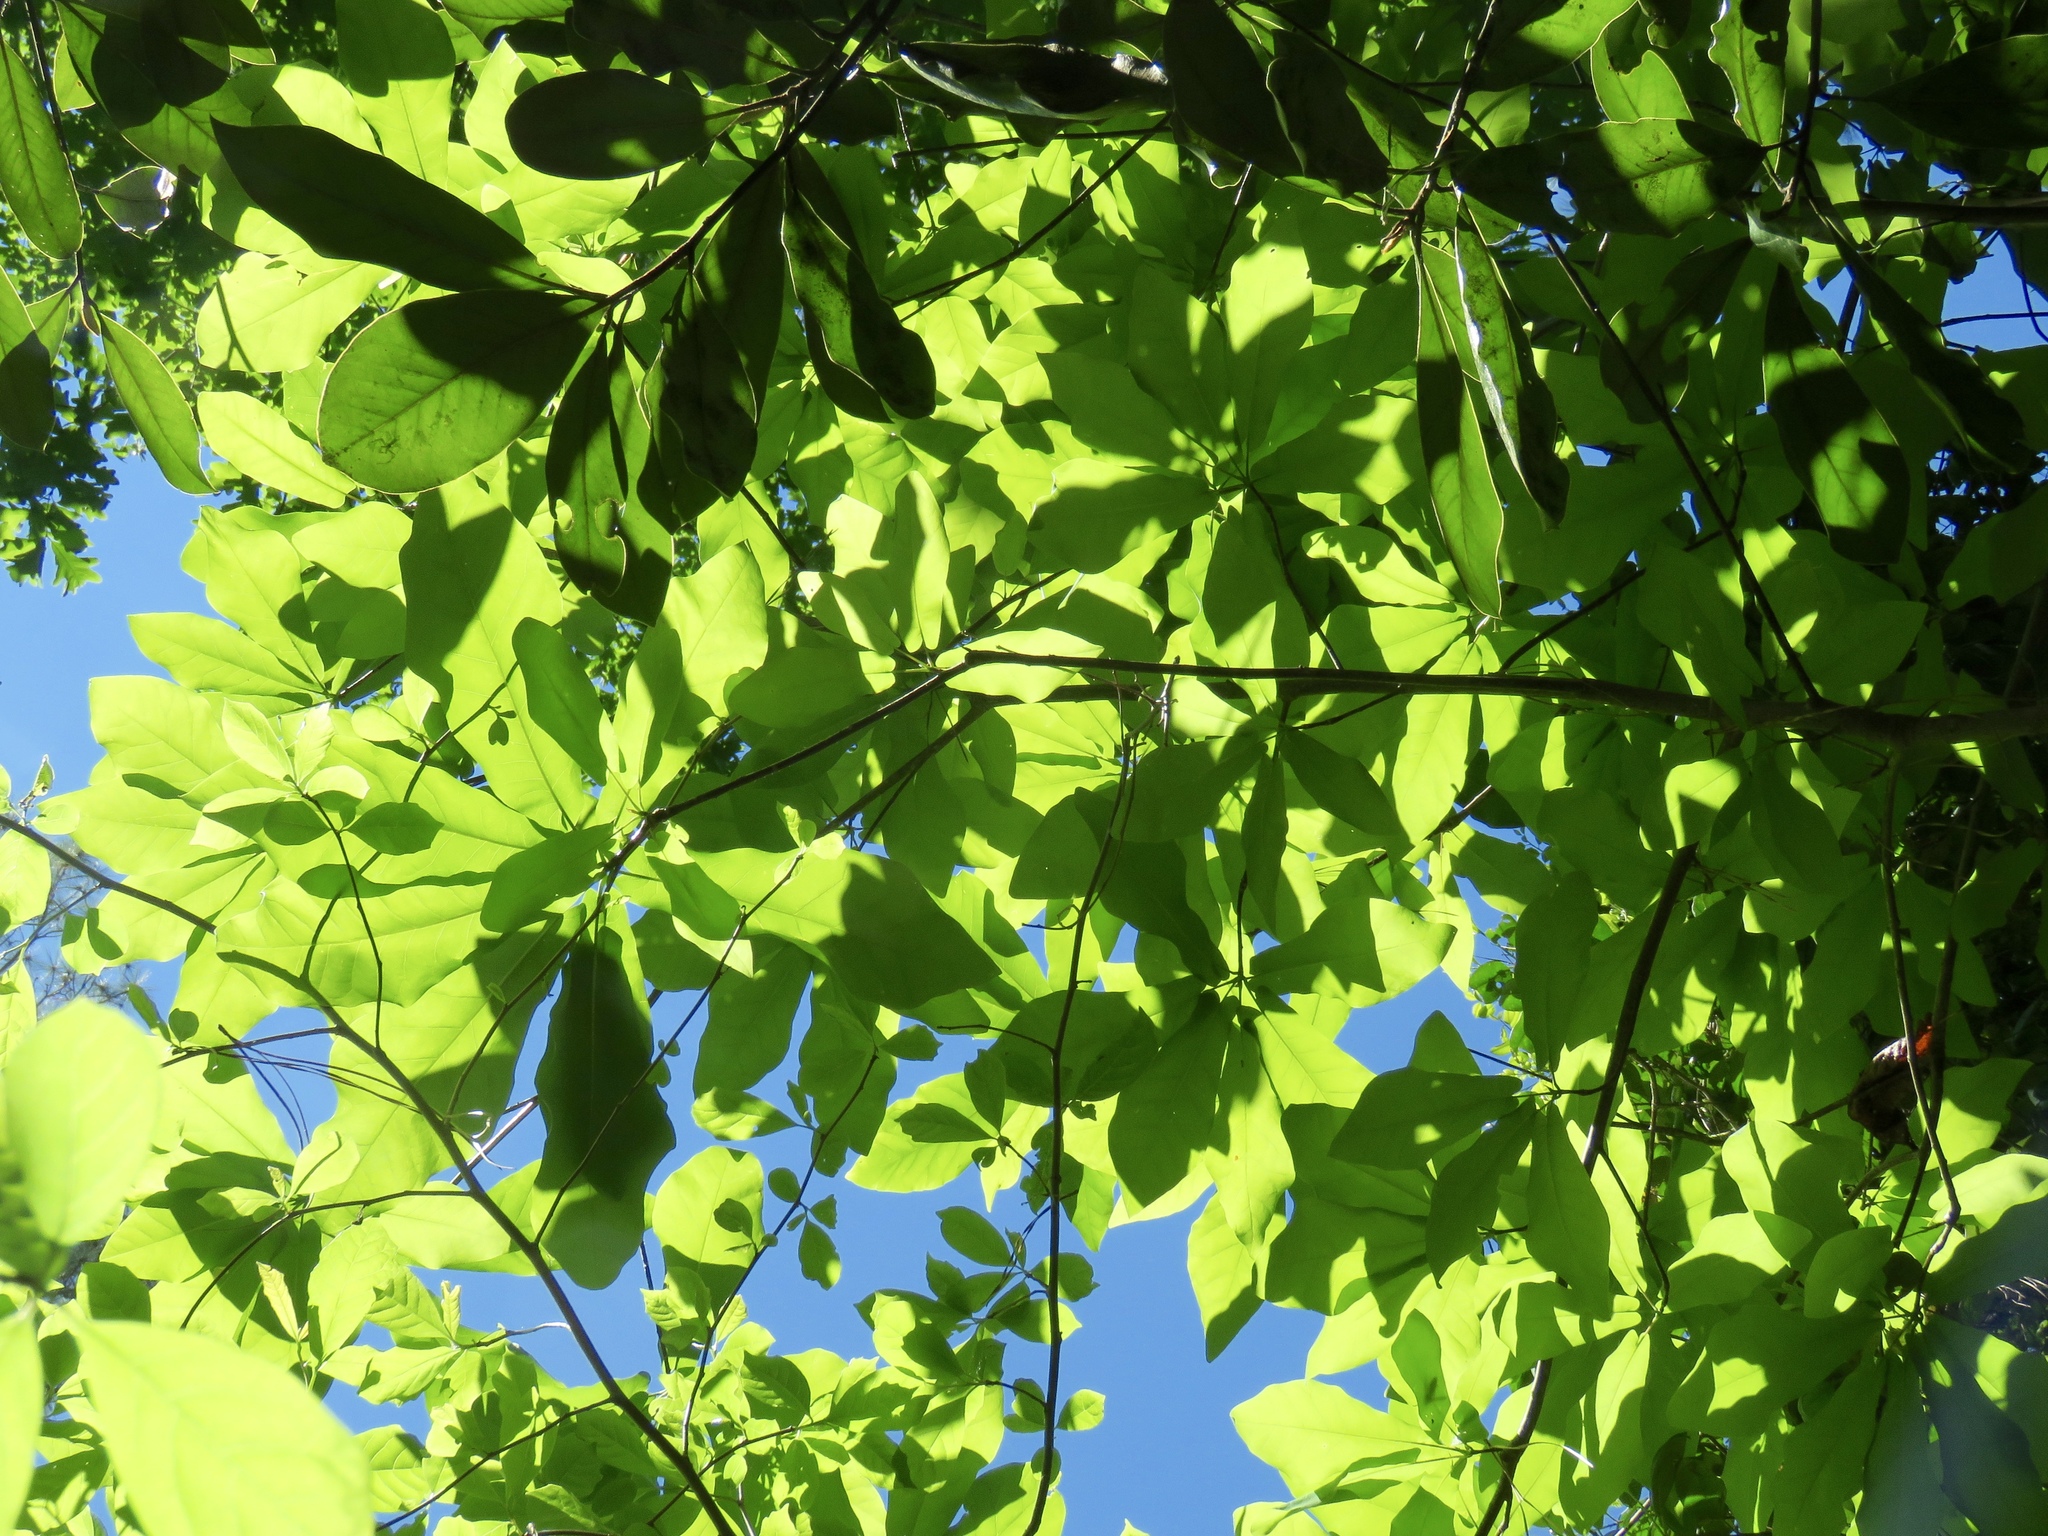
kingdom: Plantae
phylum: Tracheophyta
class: Magnoliopsida
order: Magnoliales
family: Magnoliaceae
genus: Magnolia
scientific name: Magnolia fraseri
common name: Fraser's magnolia
